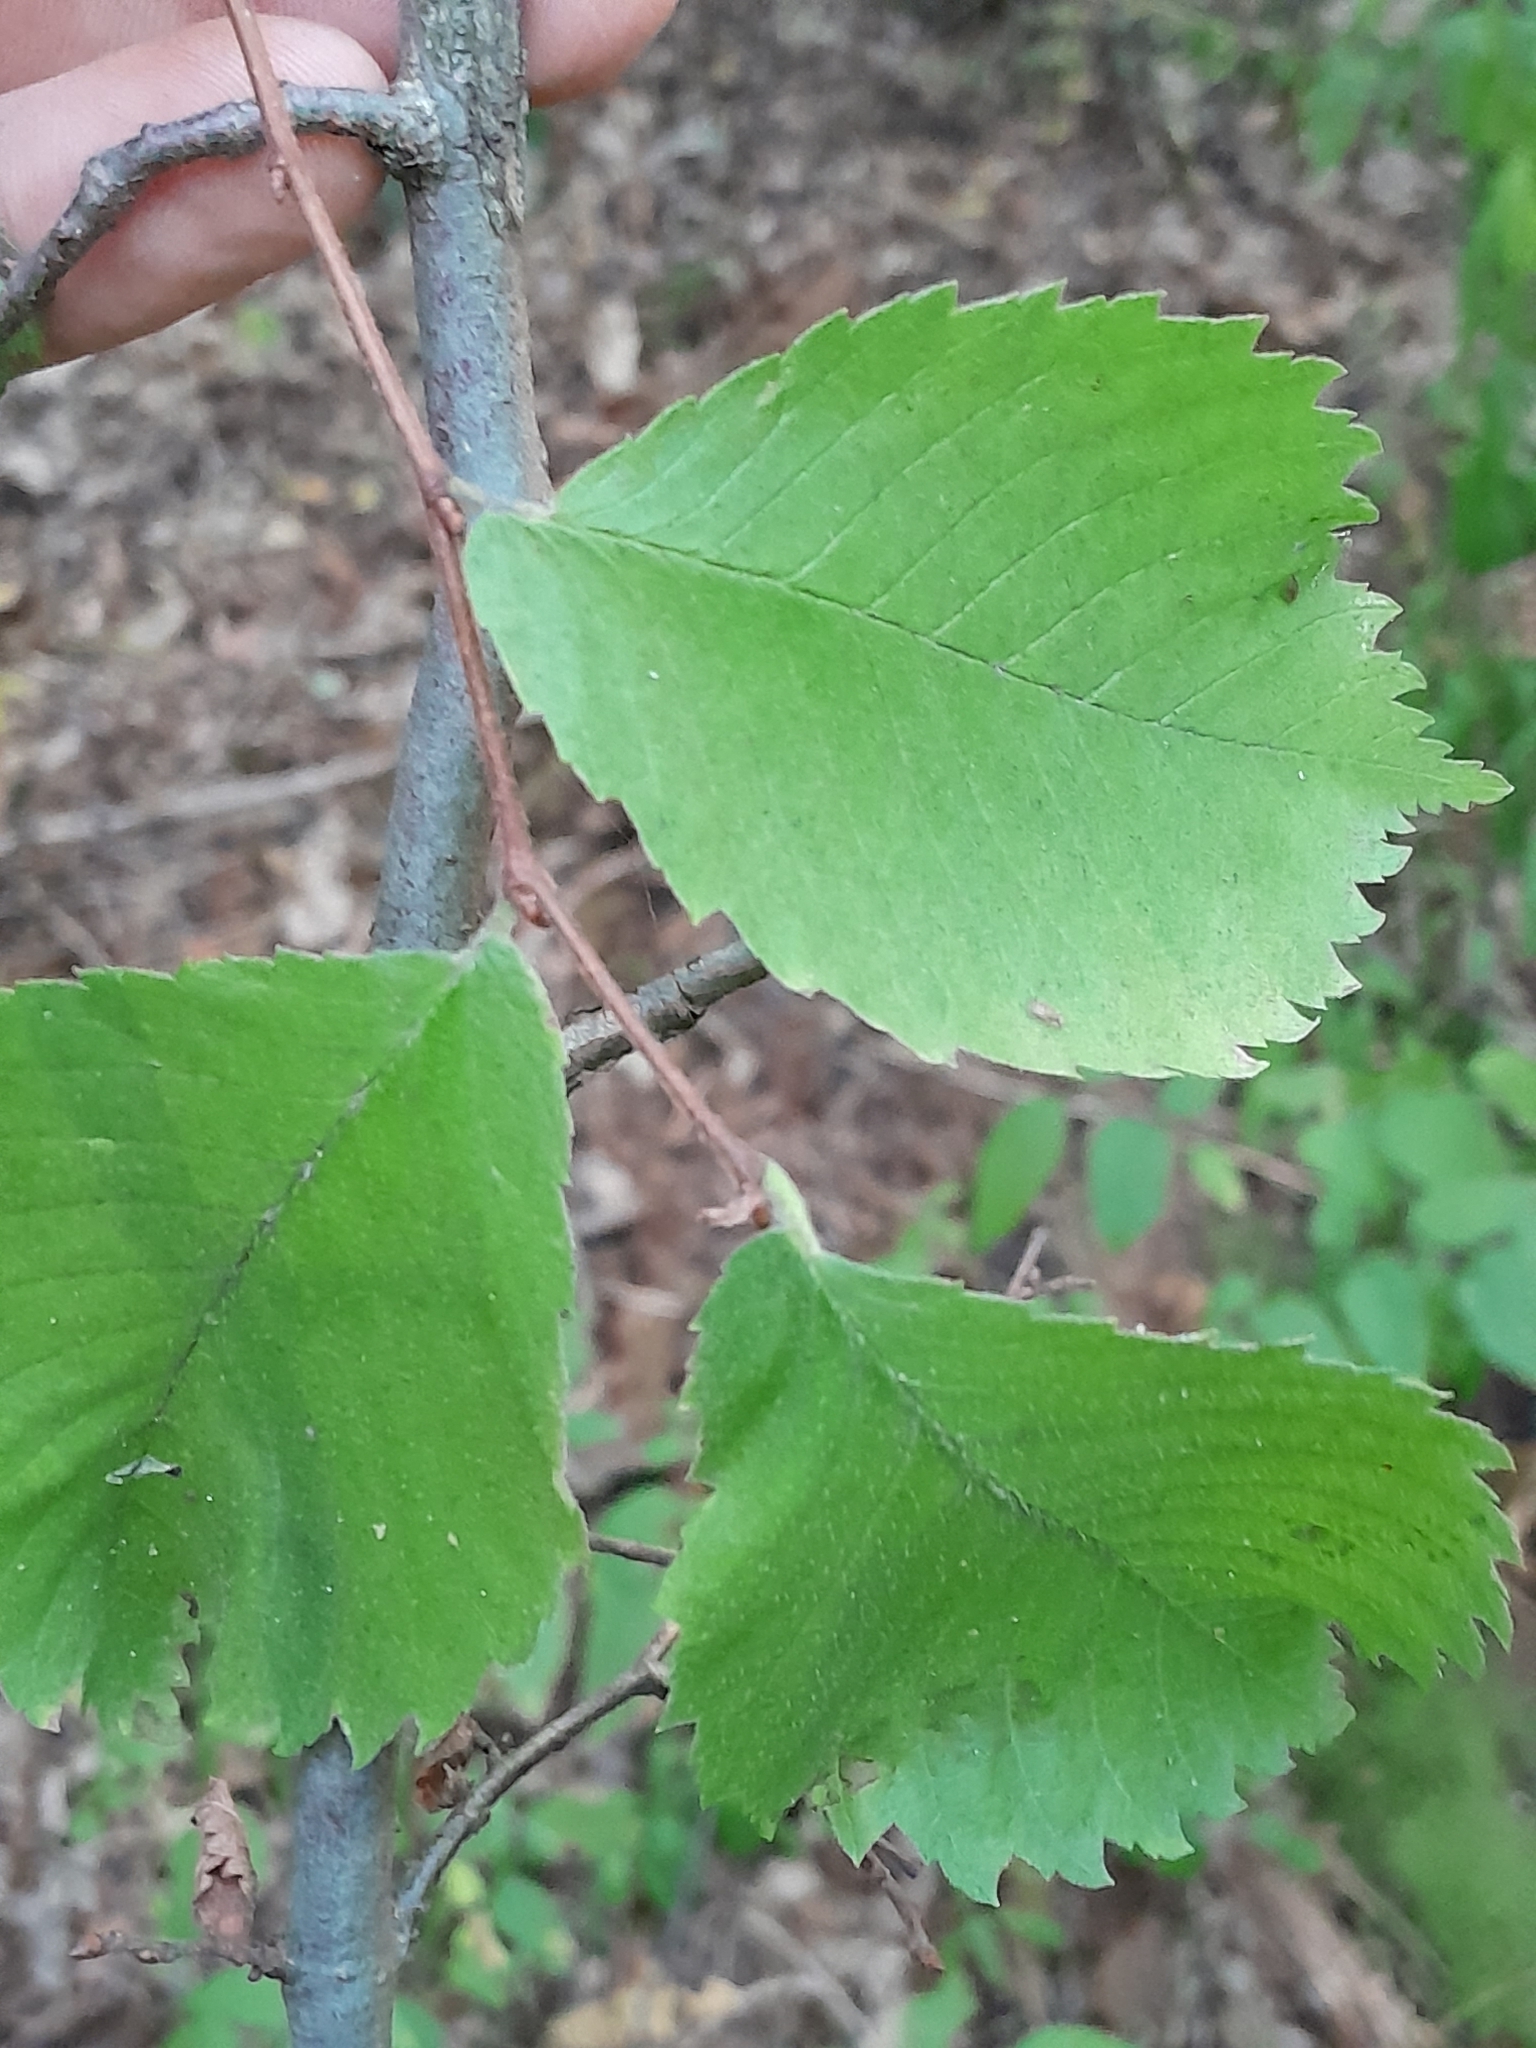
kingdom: Plantae
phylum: Tracheophyta
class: Magnoliopsida
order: Rosales
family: Ulmaceae
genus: Ulmus
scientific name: Ulmus minor
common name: Small-leaved elm
